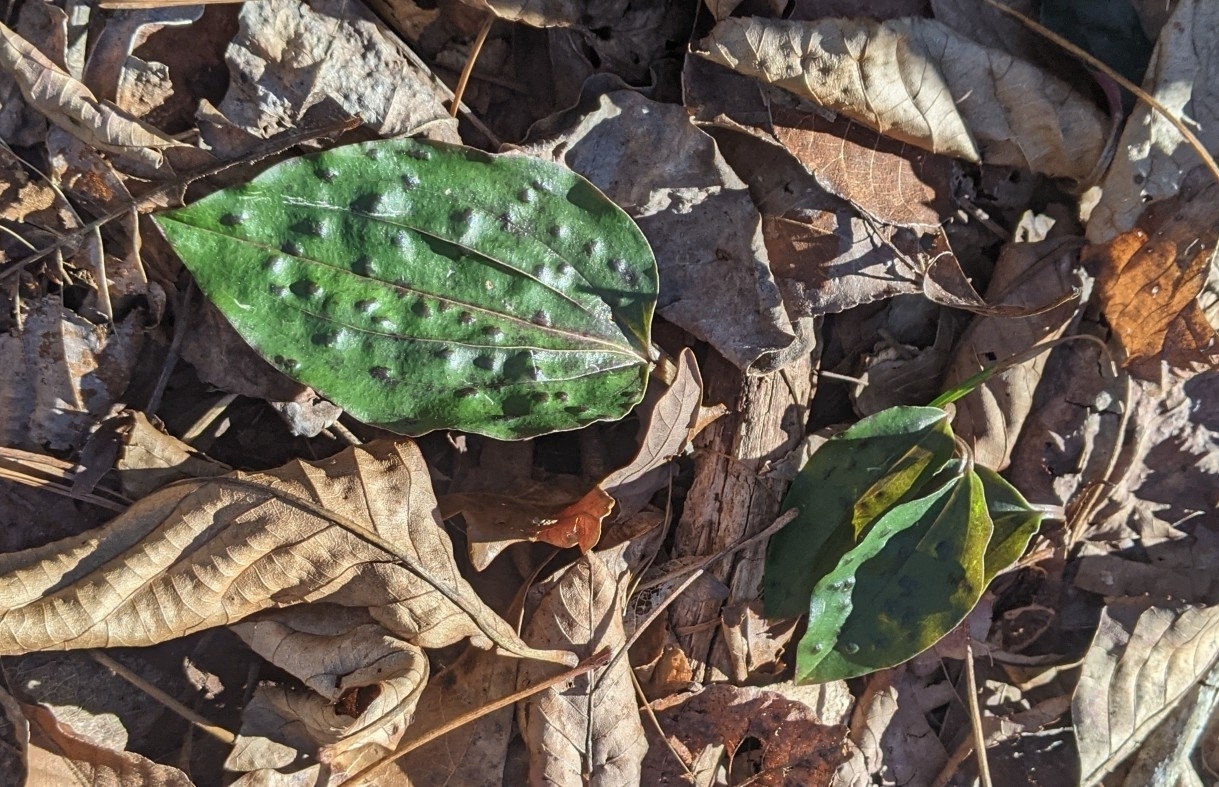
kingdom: Plantae
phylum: Tracheophyta
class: Liliopsida
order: Asparagales
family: Orchidaceae
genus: Tipularia
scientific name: Tipularia discolor
